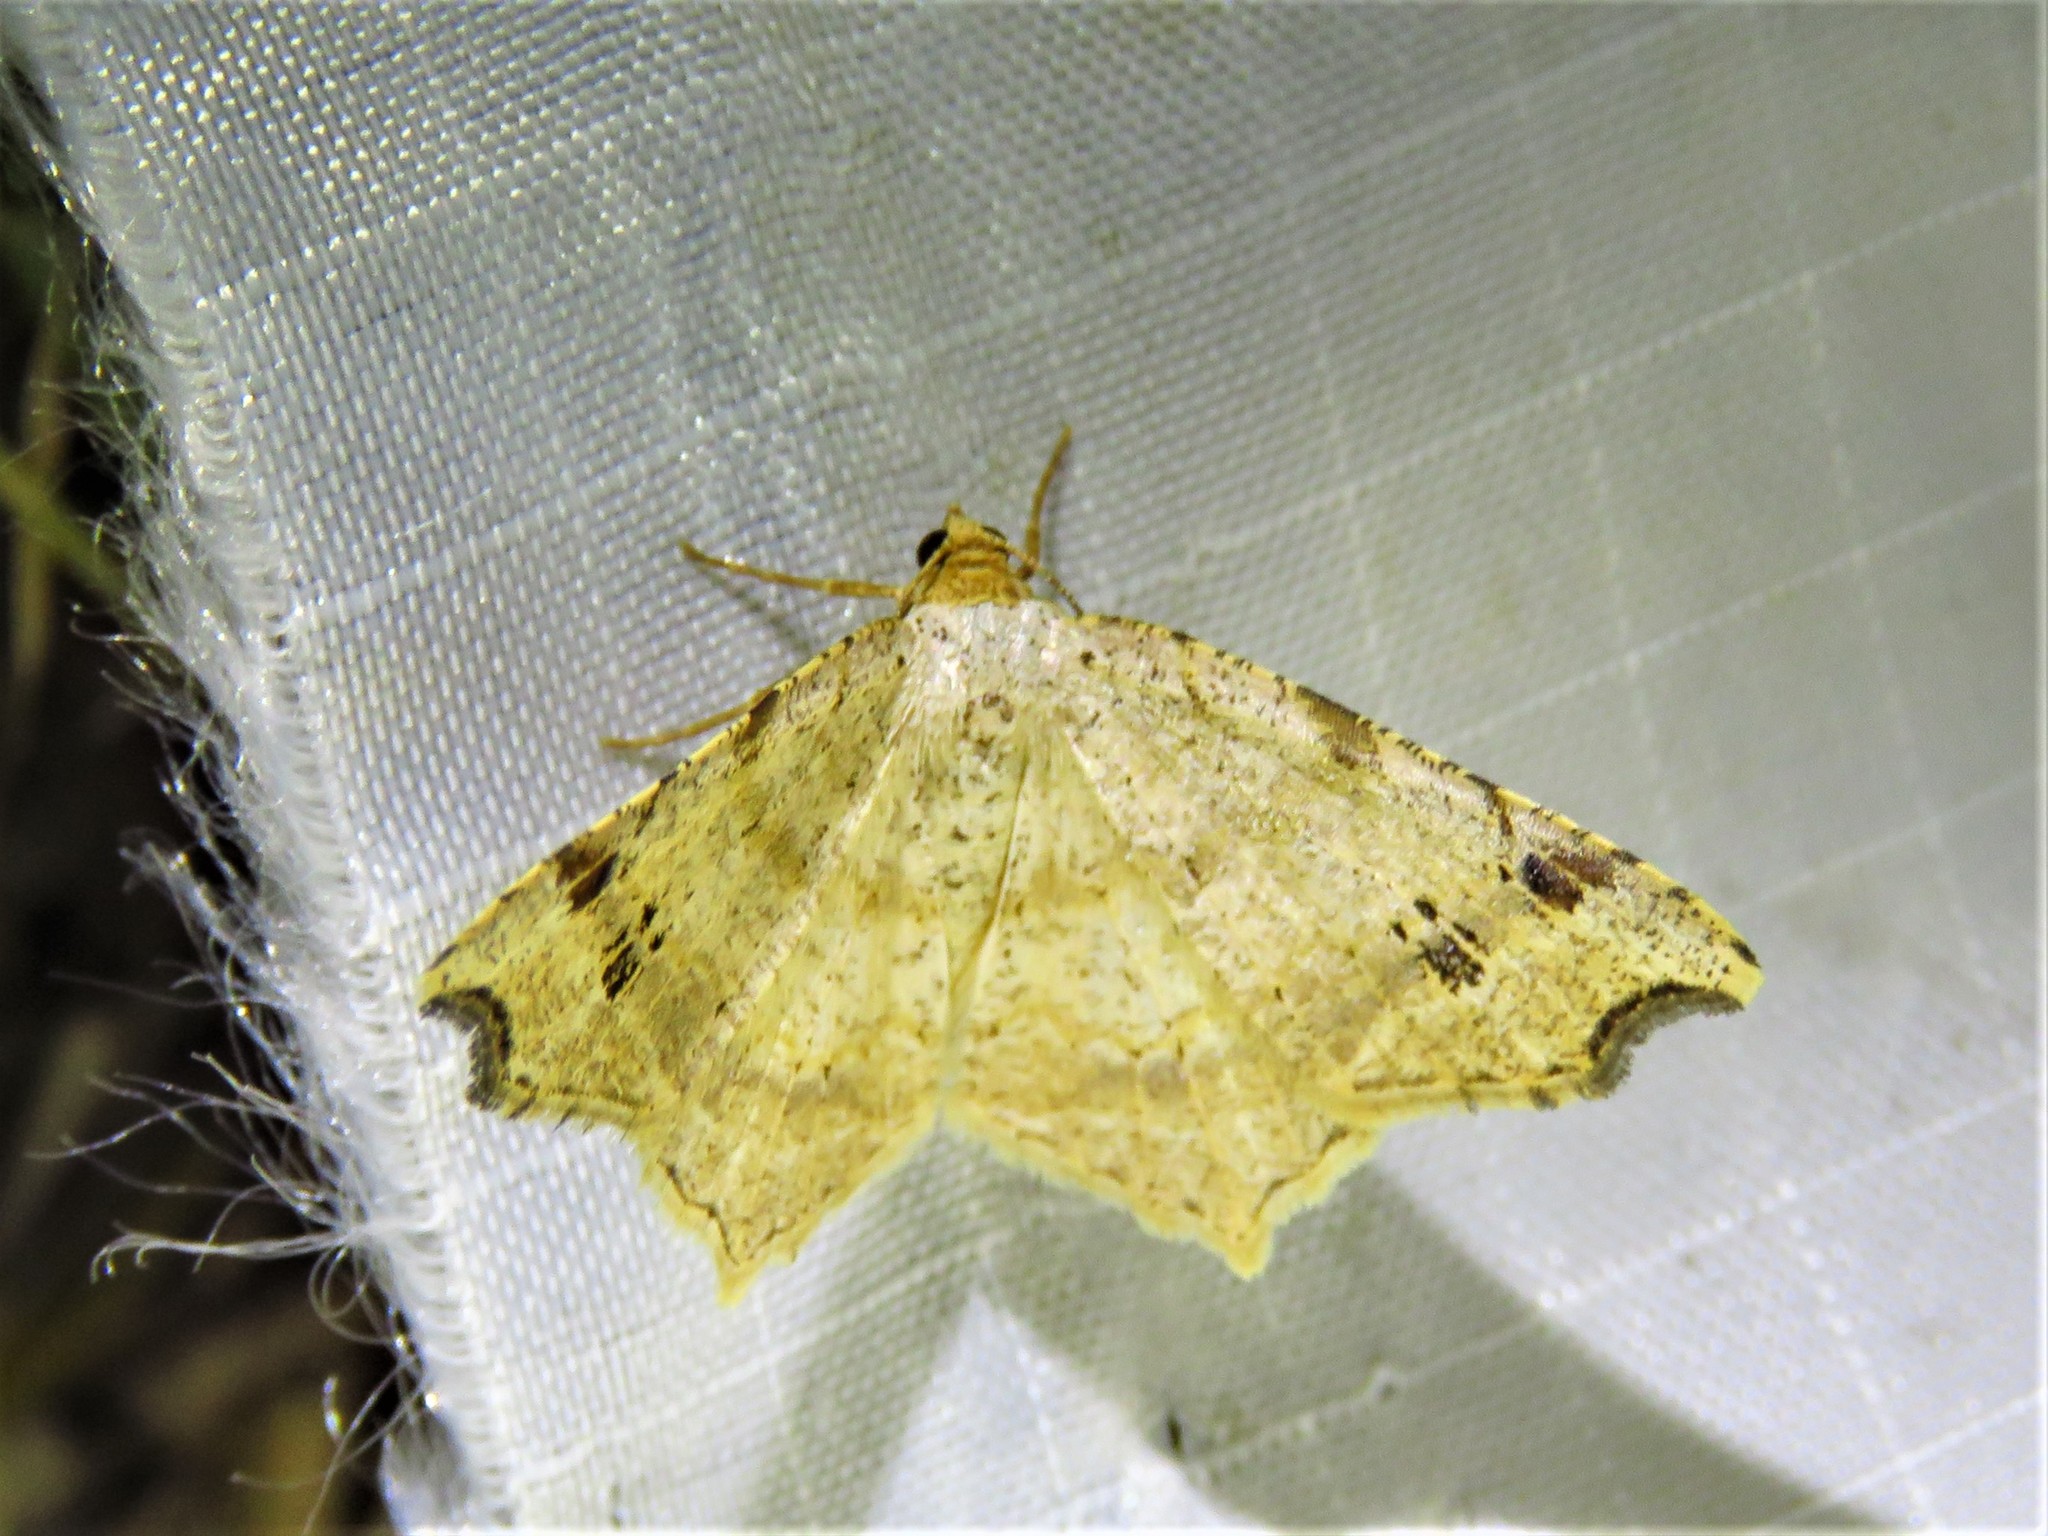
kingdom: Animalia
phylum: Arthropoda
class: Insecta
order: Lepidoptera
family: Geometridae
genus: Macaria
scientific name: Macaria aemulataria
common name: Common angle
